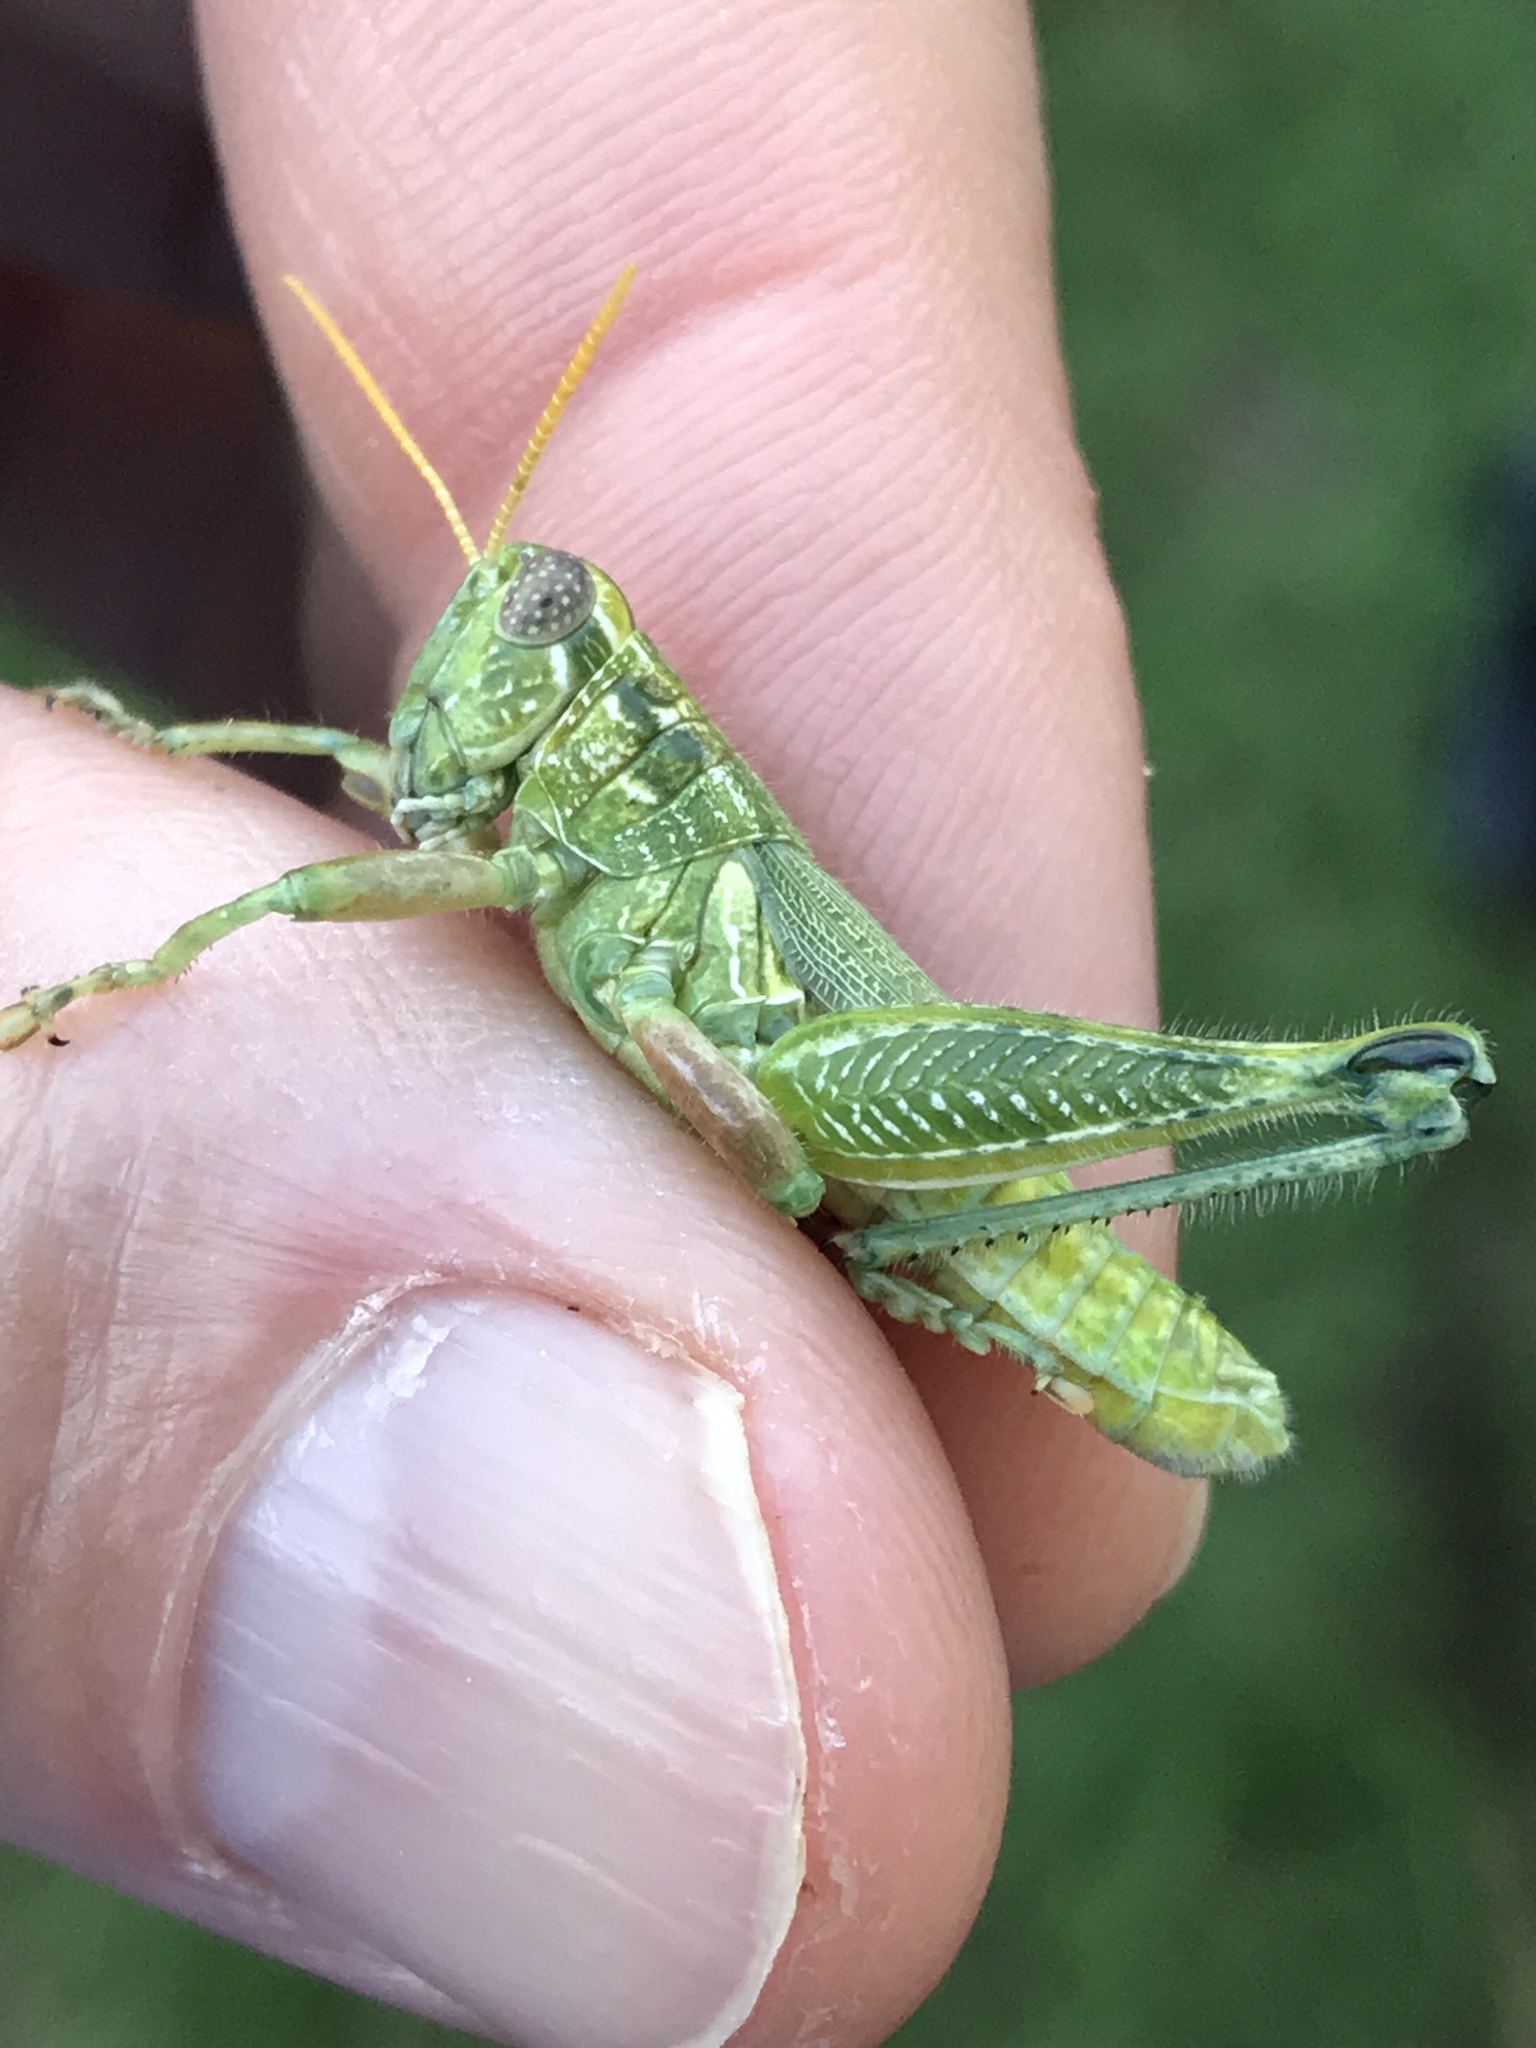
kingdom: Animalia
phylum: Arthropoda
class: Insecta
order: Orthoptera
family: Acrididae
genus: Campylacantha
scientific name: Campylacantha olivacea
